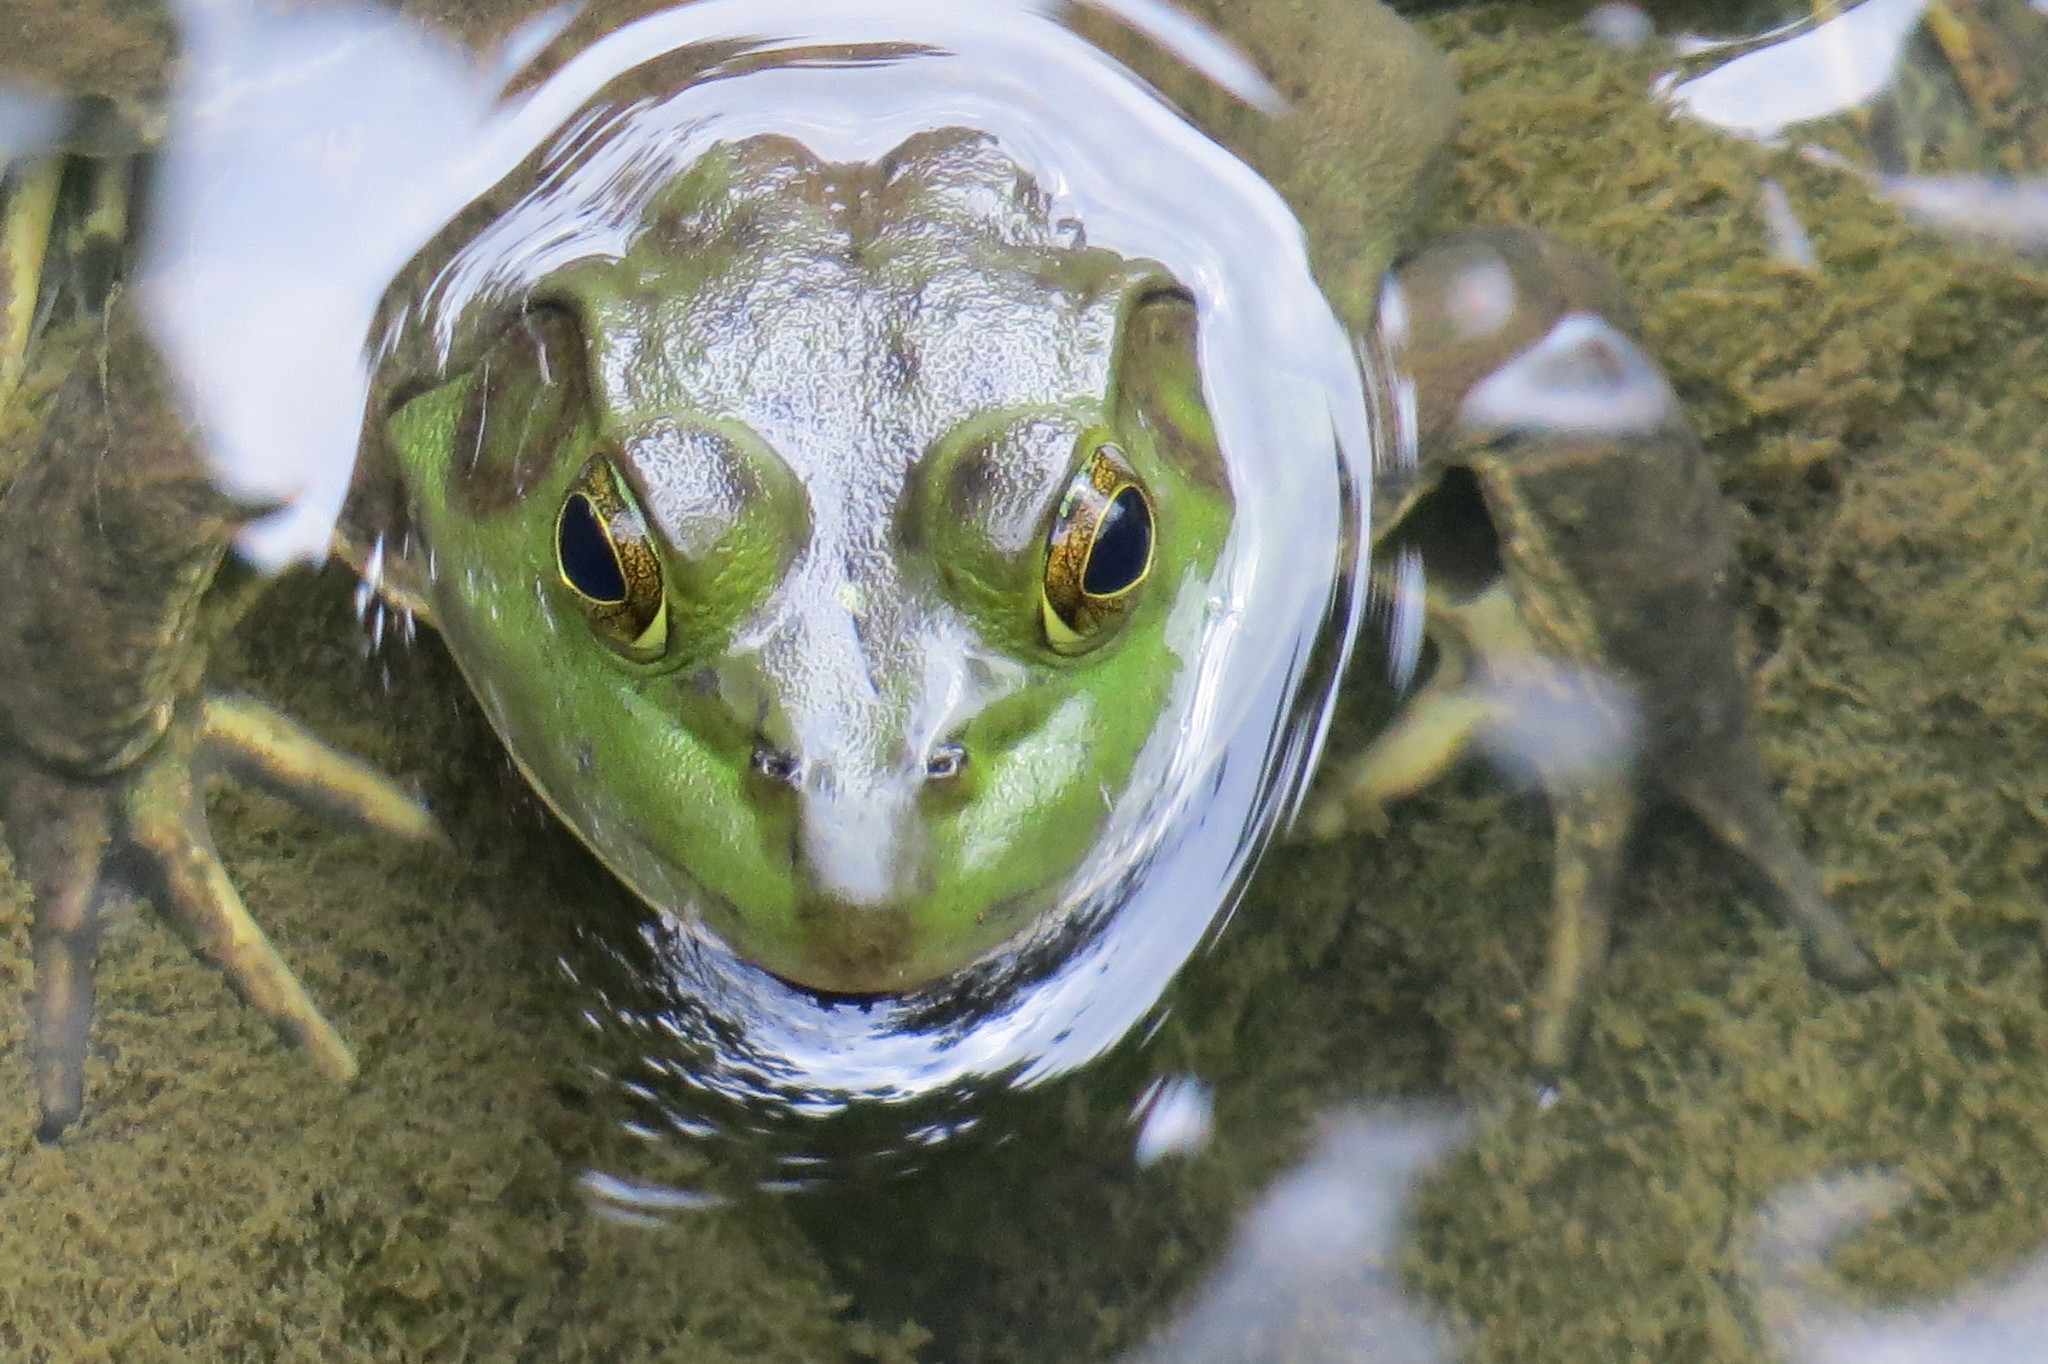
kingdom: Animalia
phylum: Chordata
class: Amphibia
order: Anura
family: Ranidae
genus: Lithobates
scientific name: Lithobates catesbeianus
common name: American bullfrog
